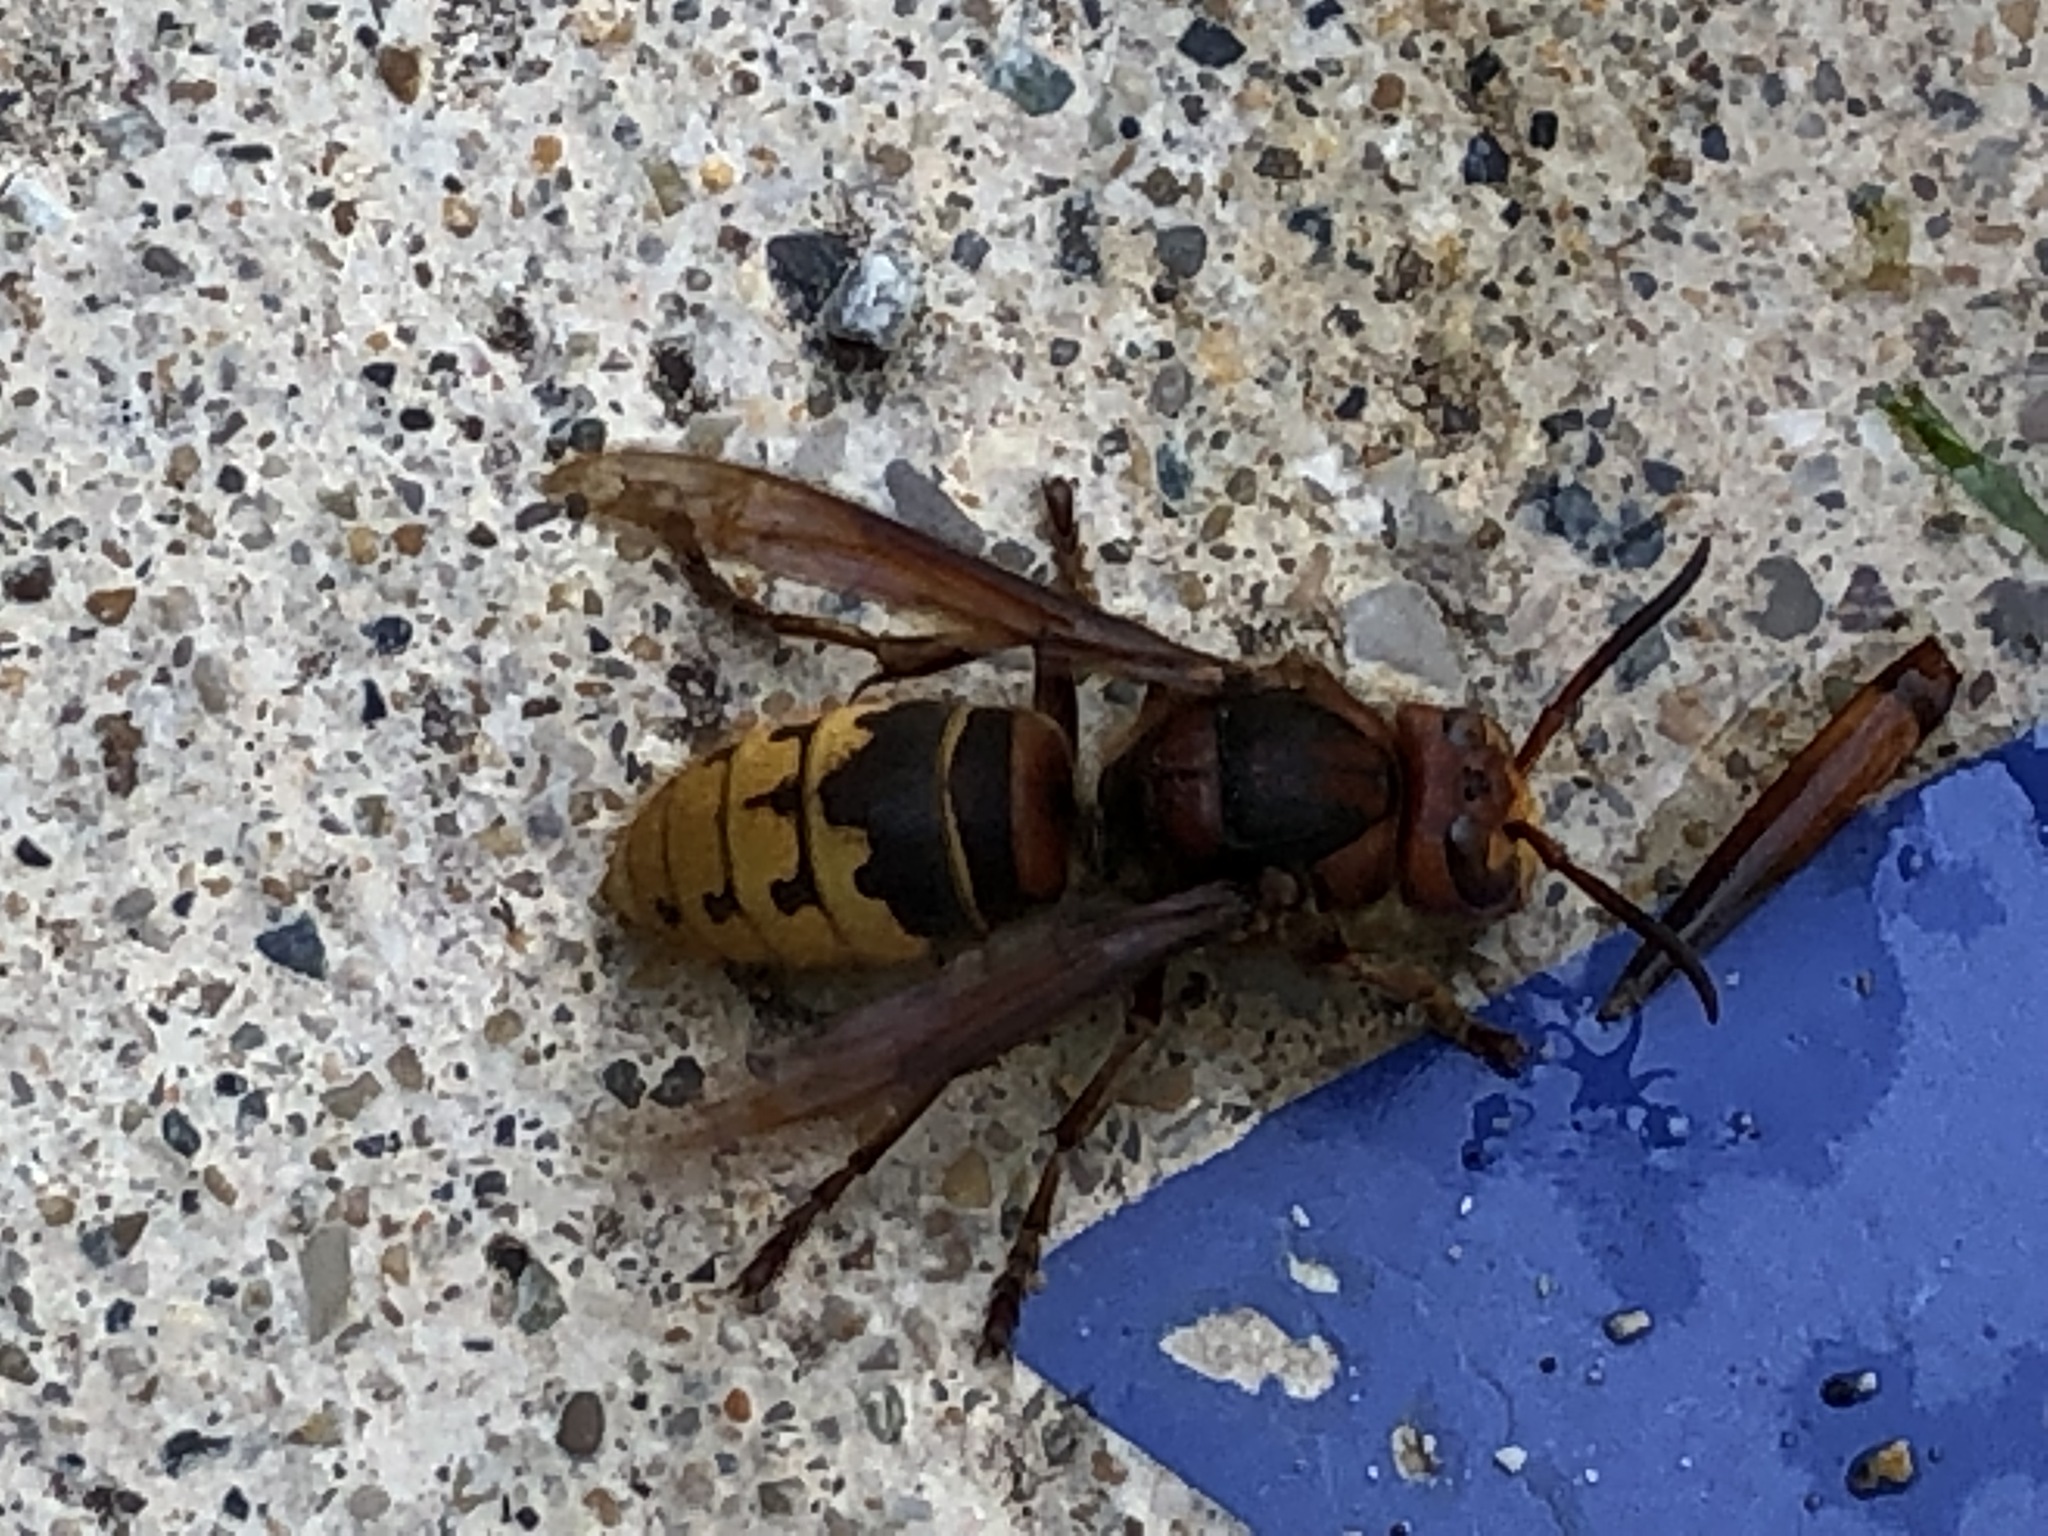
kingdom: Animalia
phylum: Arthropoda
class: Insecta
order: Hymenoptera
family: Vespidae
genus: Vespa
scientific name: Vespa crabro
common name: Hornet
